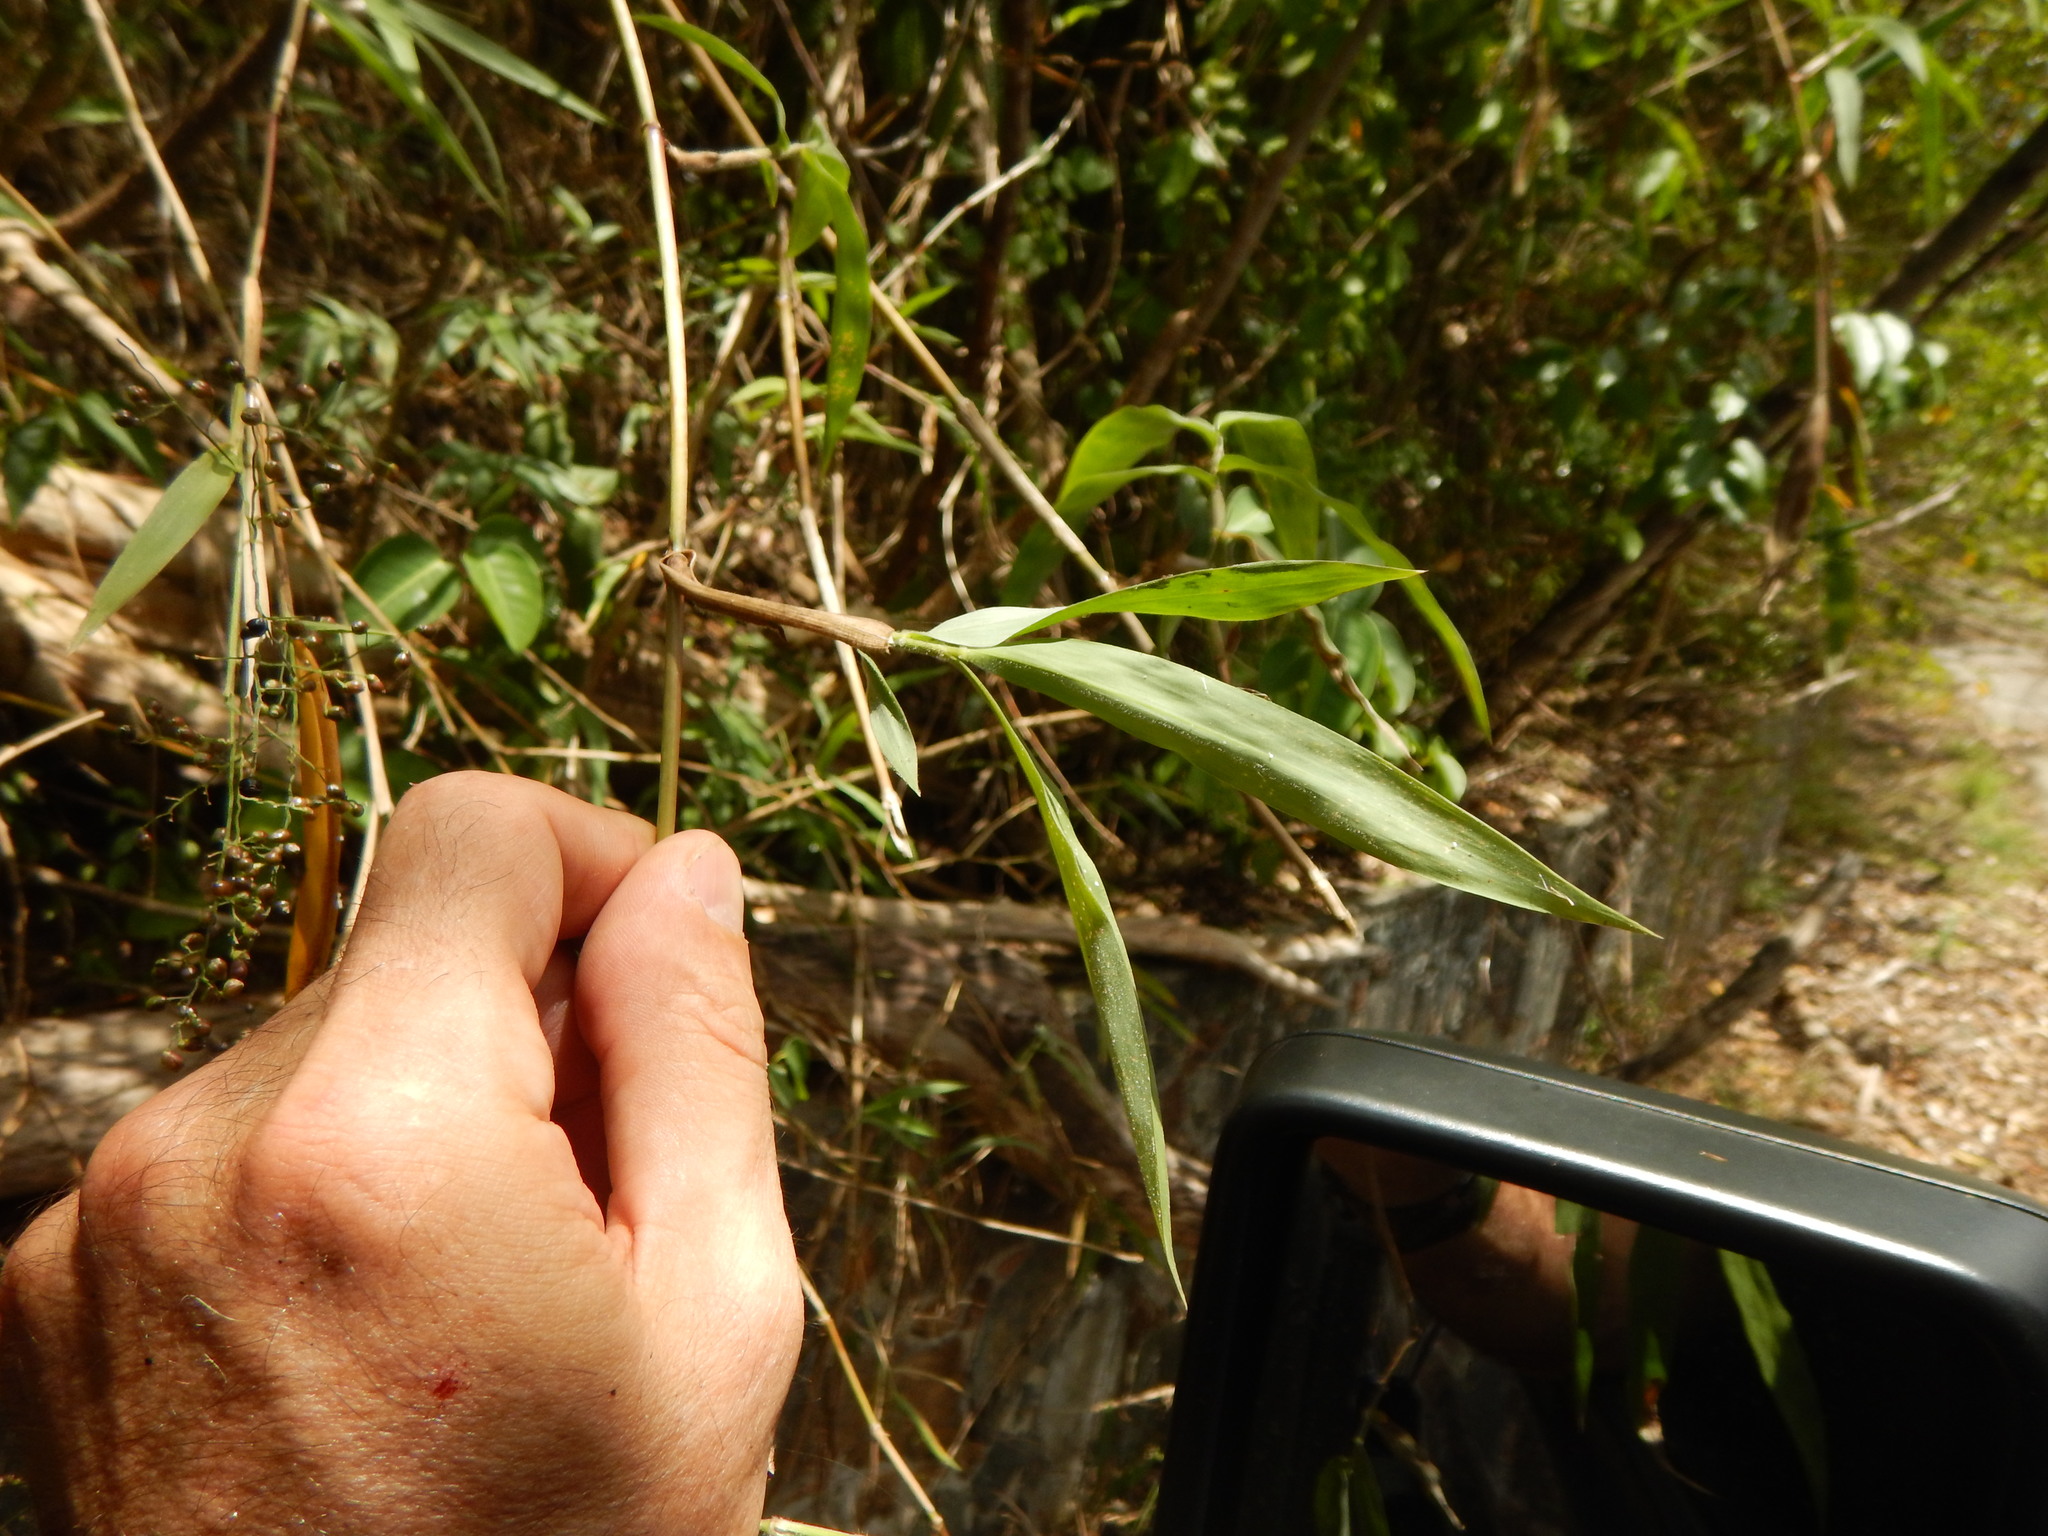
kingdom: Plantae
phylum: Tracheophyta
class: Liliopsida
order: Poales
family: Poaceae
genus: Lasiacis
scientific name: Lasiacis divaricata
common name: Smallcane
